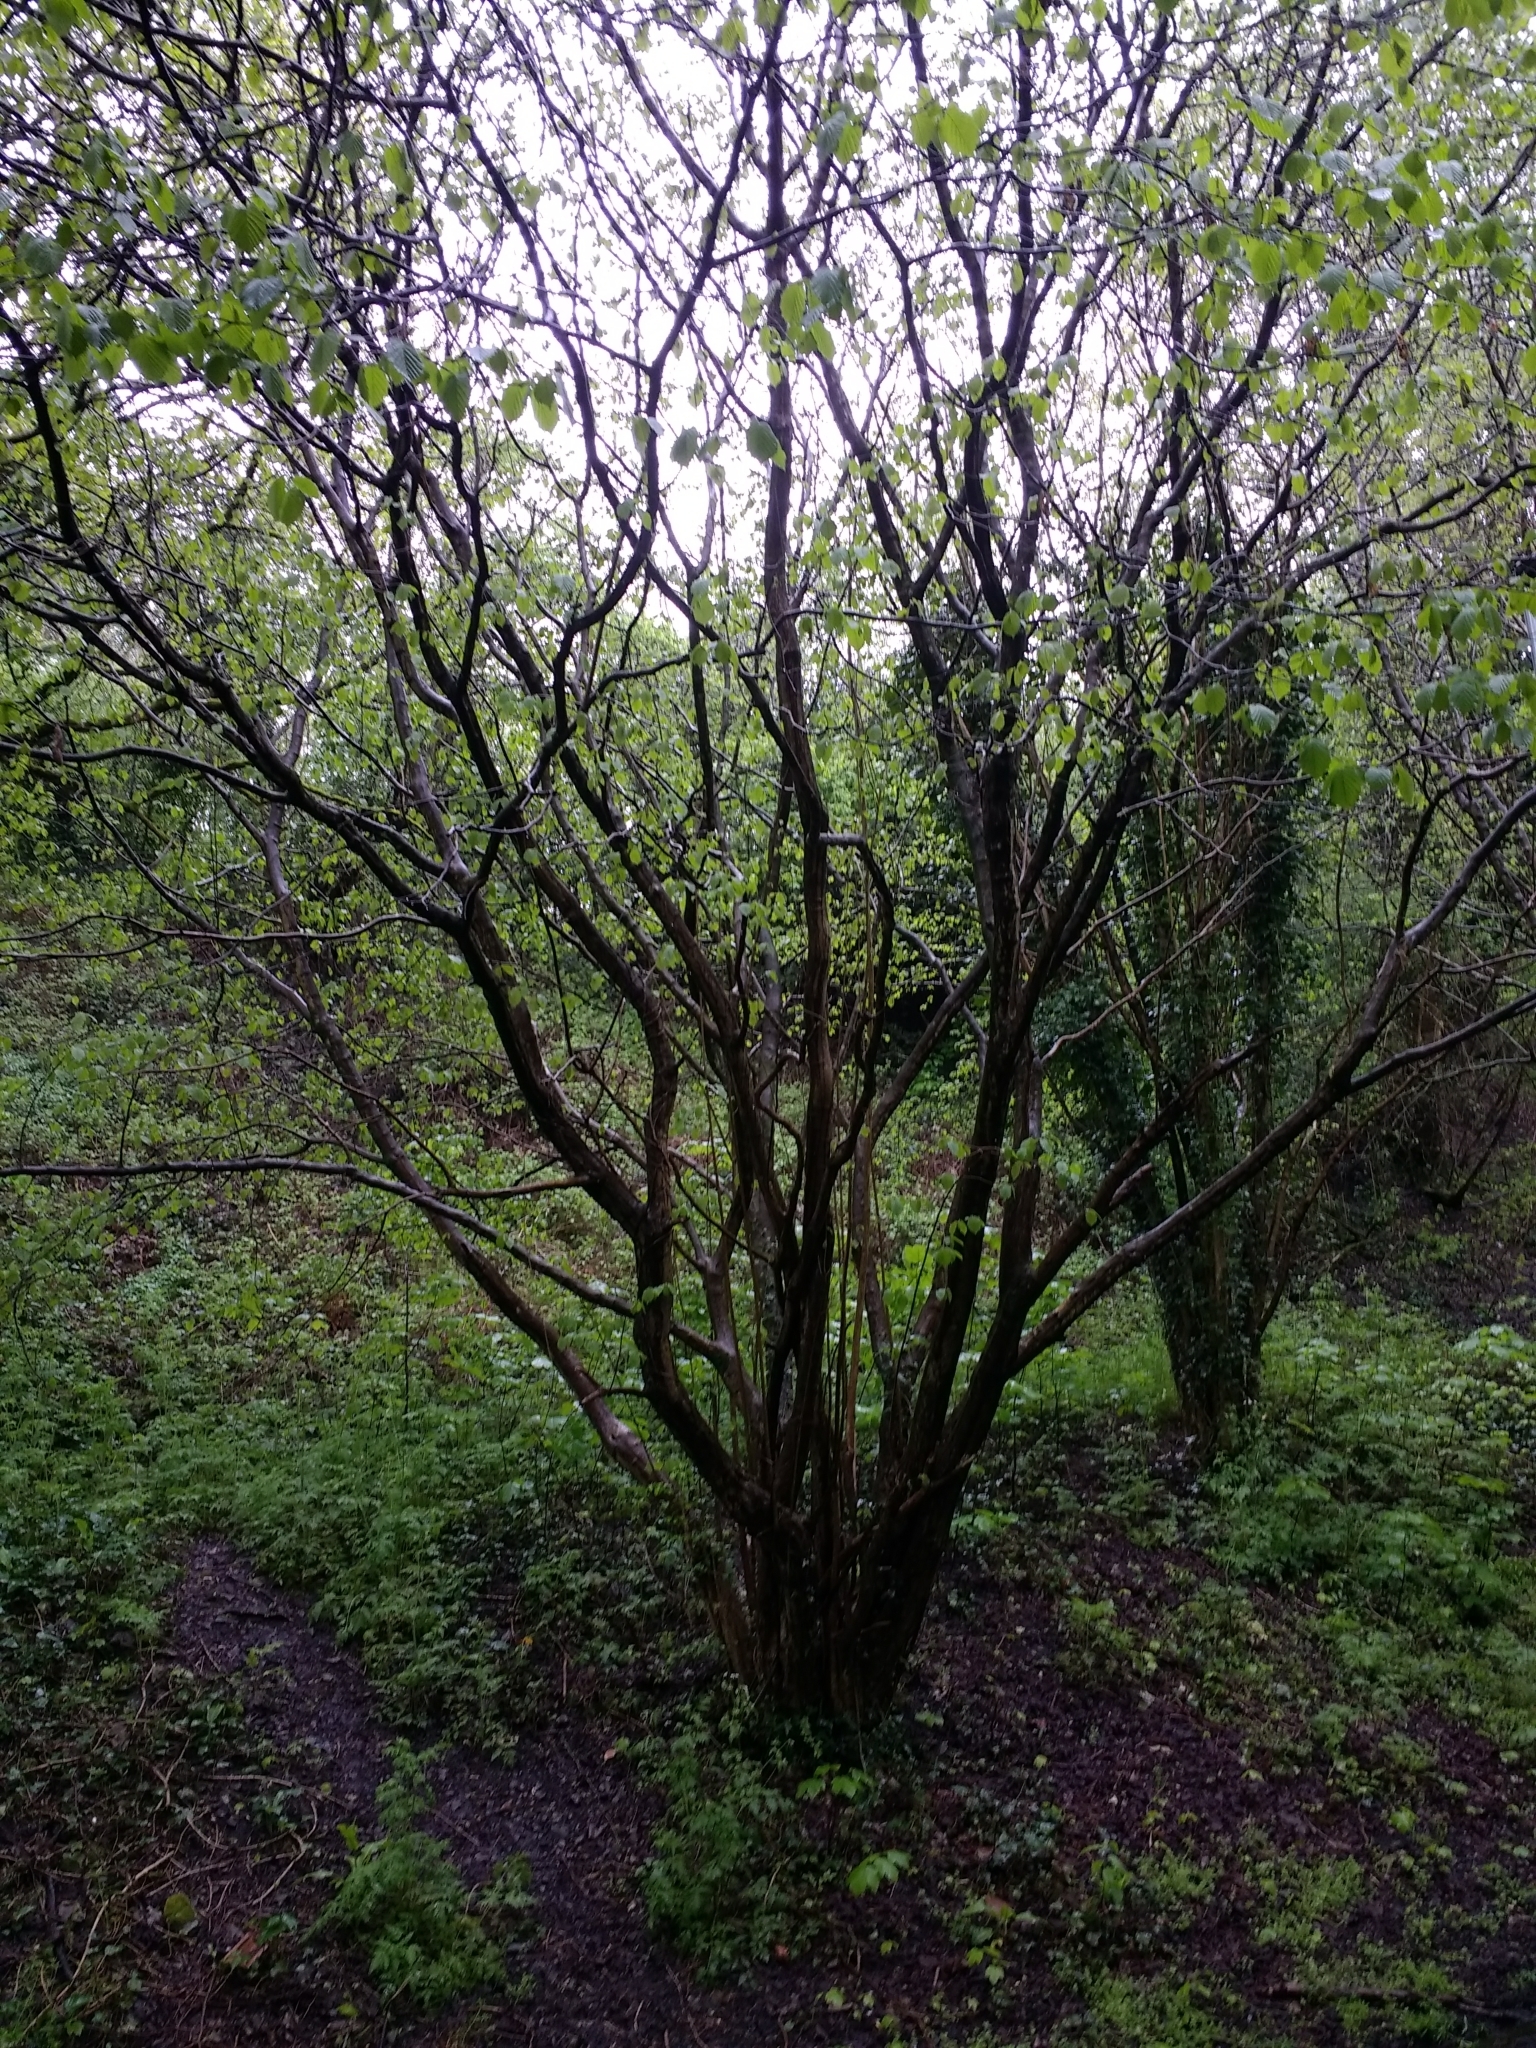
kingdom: Plantae
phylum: Tracheophyta
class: Magnoliopsida
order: Fagales
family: Betulaceae
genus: Corylus
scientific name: Corylus avellana
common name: European hazel
